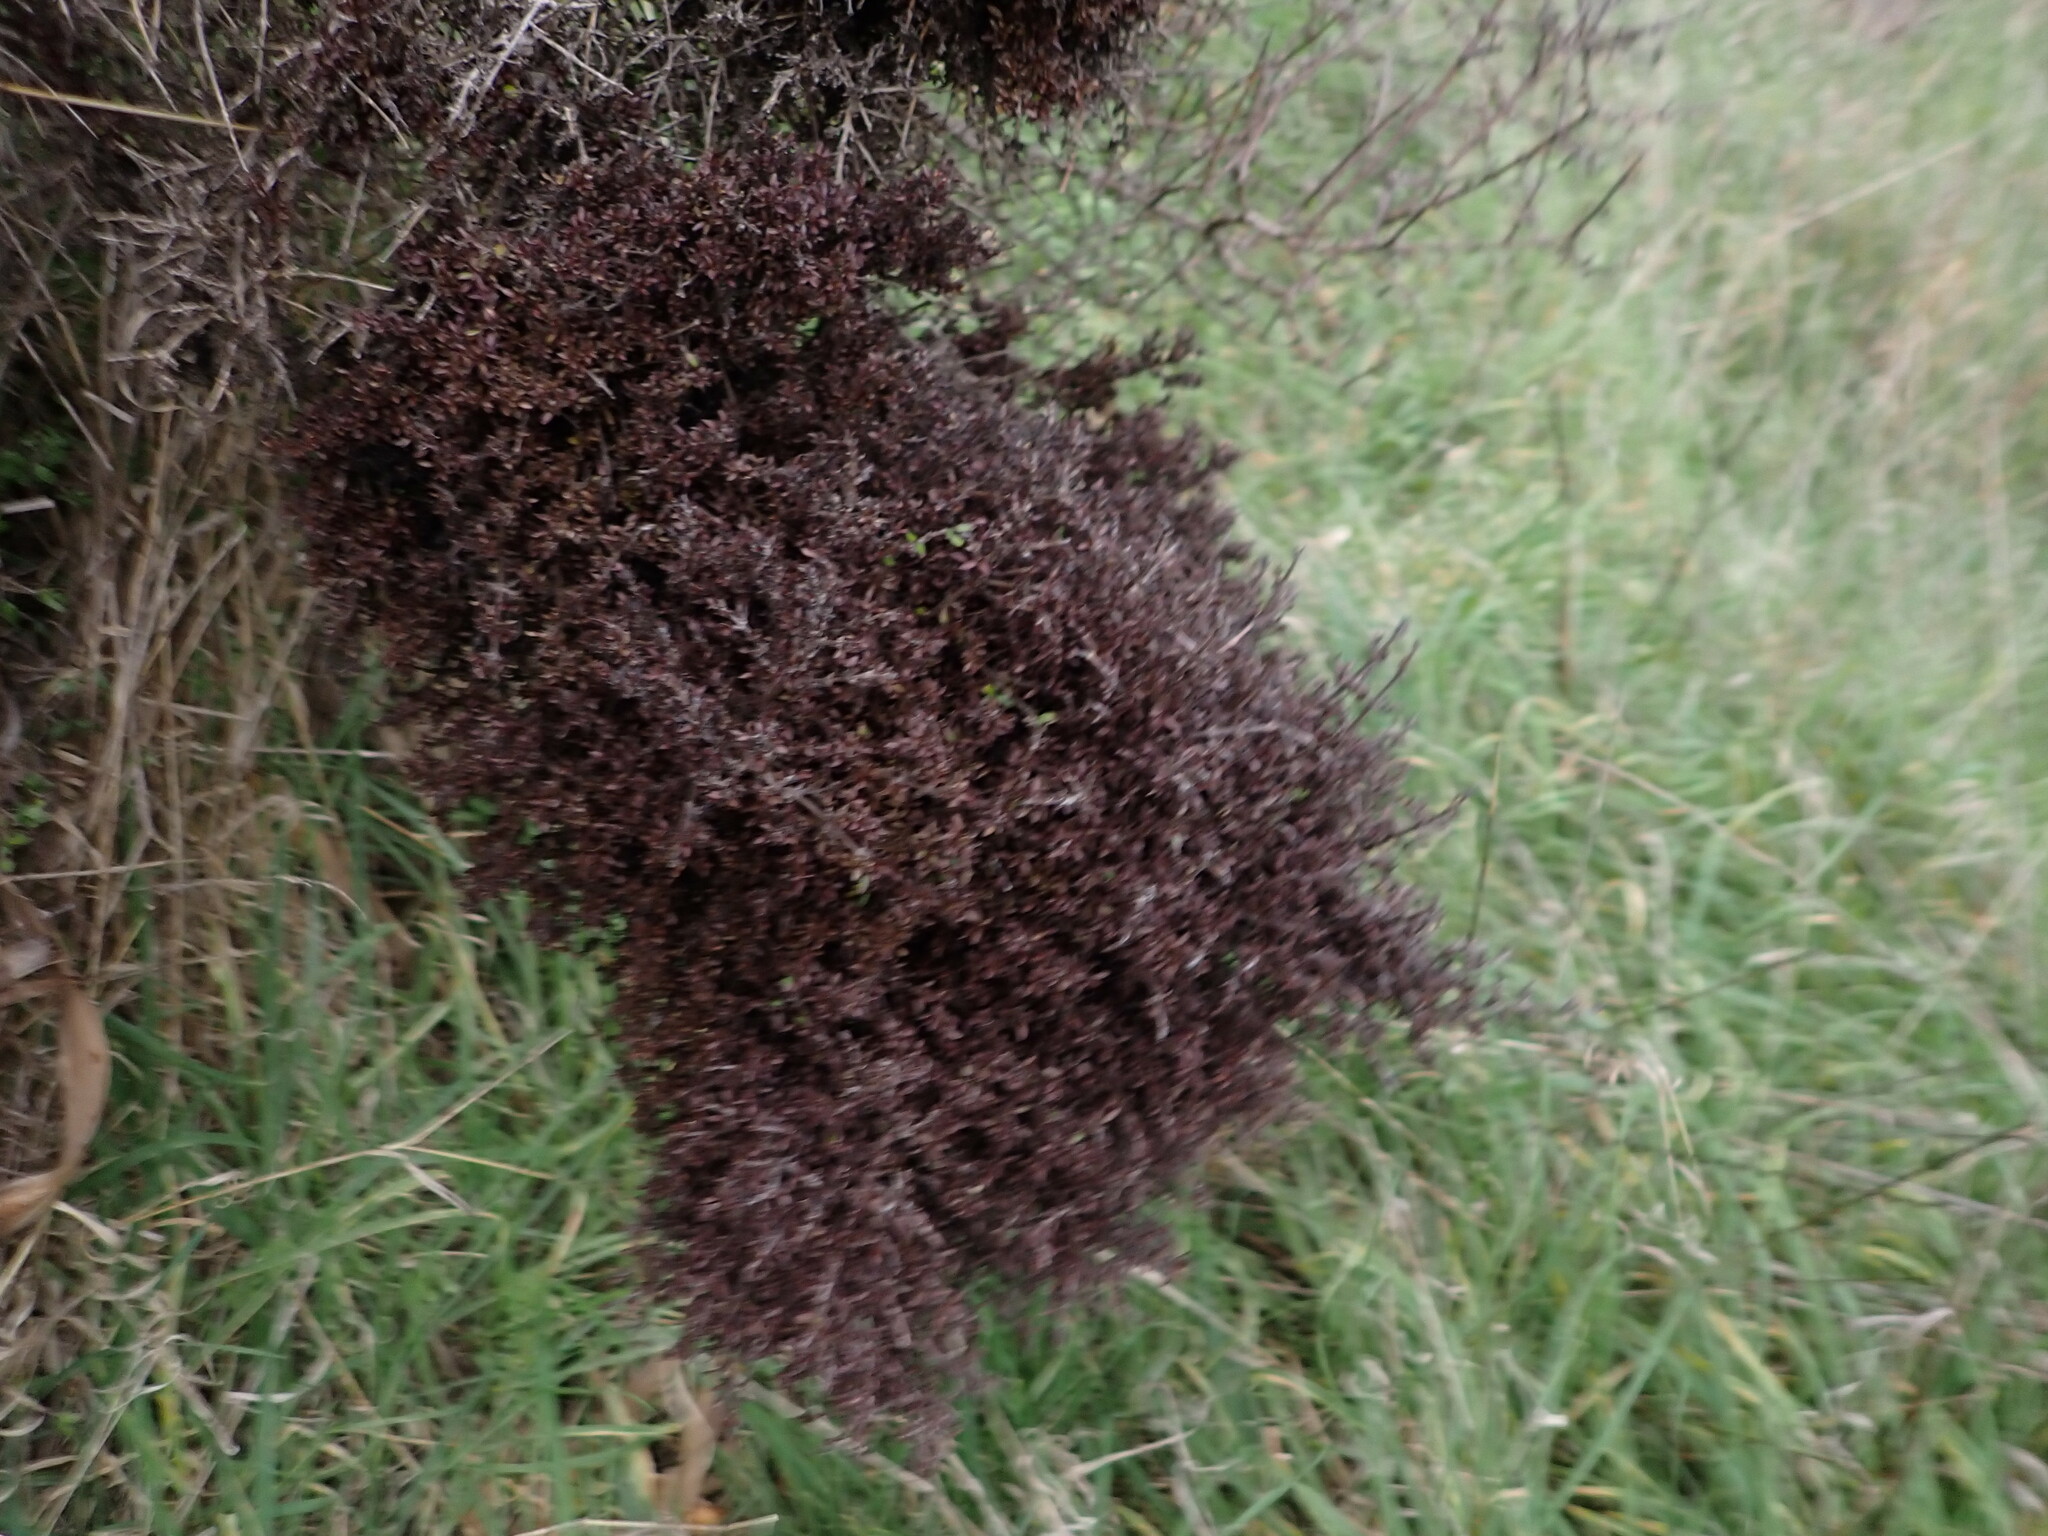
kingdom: Animalia
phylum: Arthropoda
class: Arachnida
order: Trombidiformes
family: Eriophyidae
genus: Aculops
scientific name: Aculops
